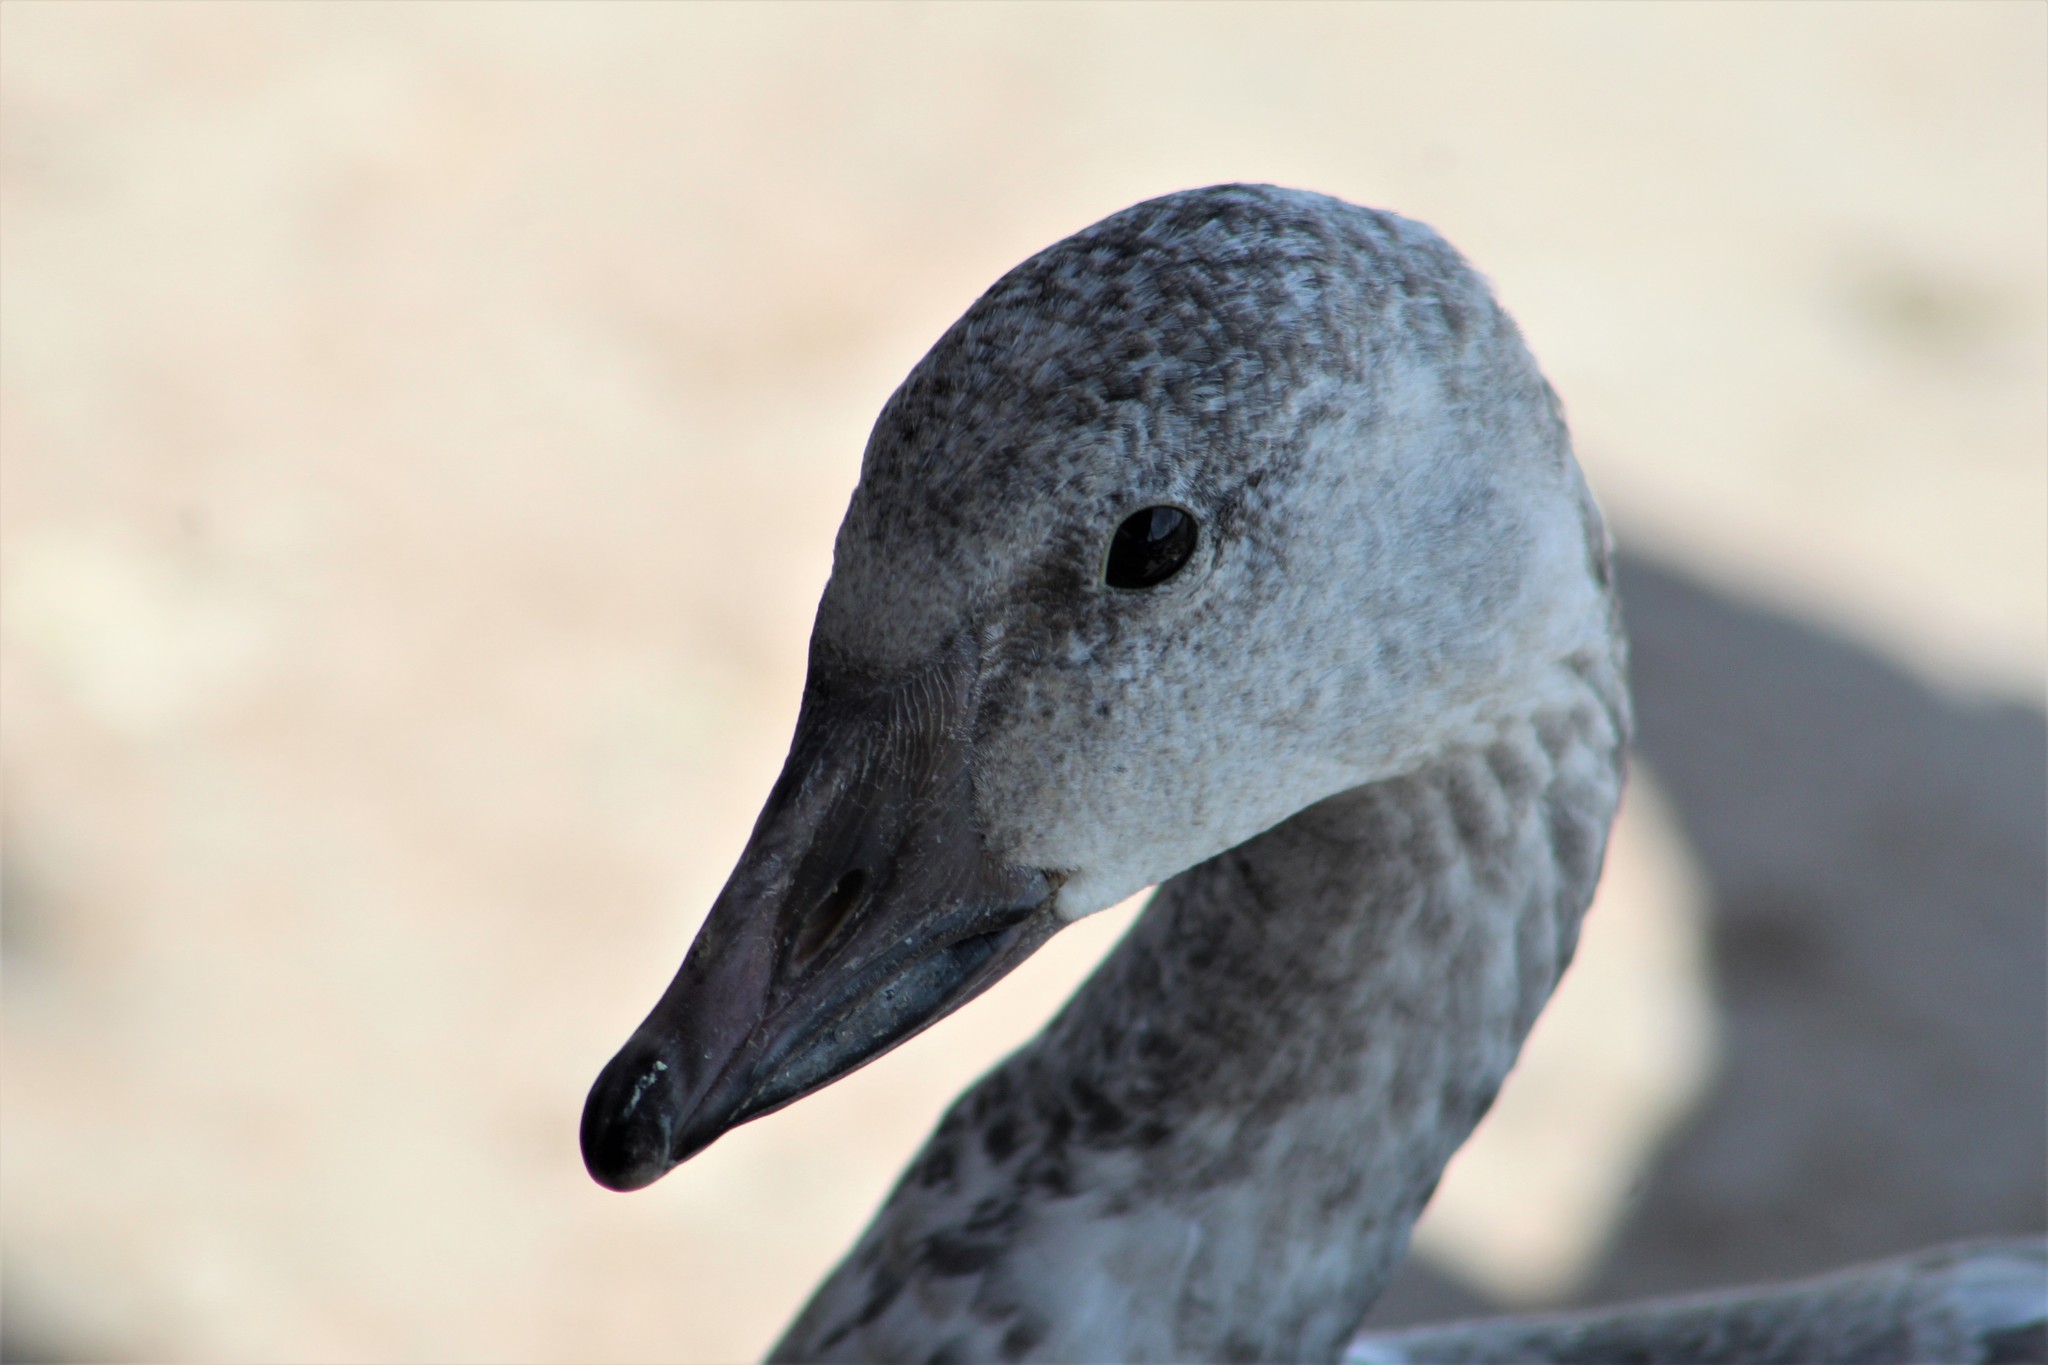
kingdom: Animalia
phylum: Chordata
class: Aves
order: Anseriformes
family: Anatidae
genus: Anser
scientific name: Anser caerulescens
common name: Snow goose
